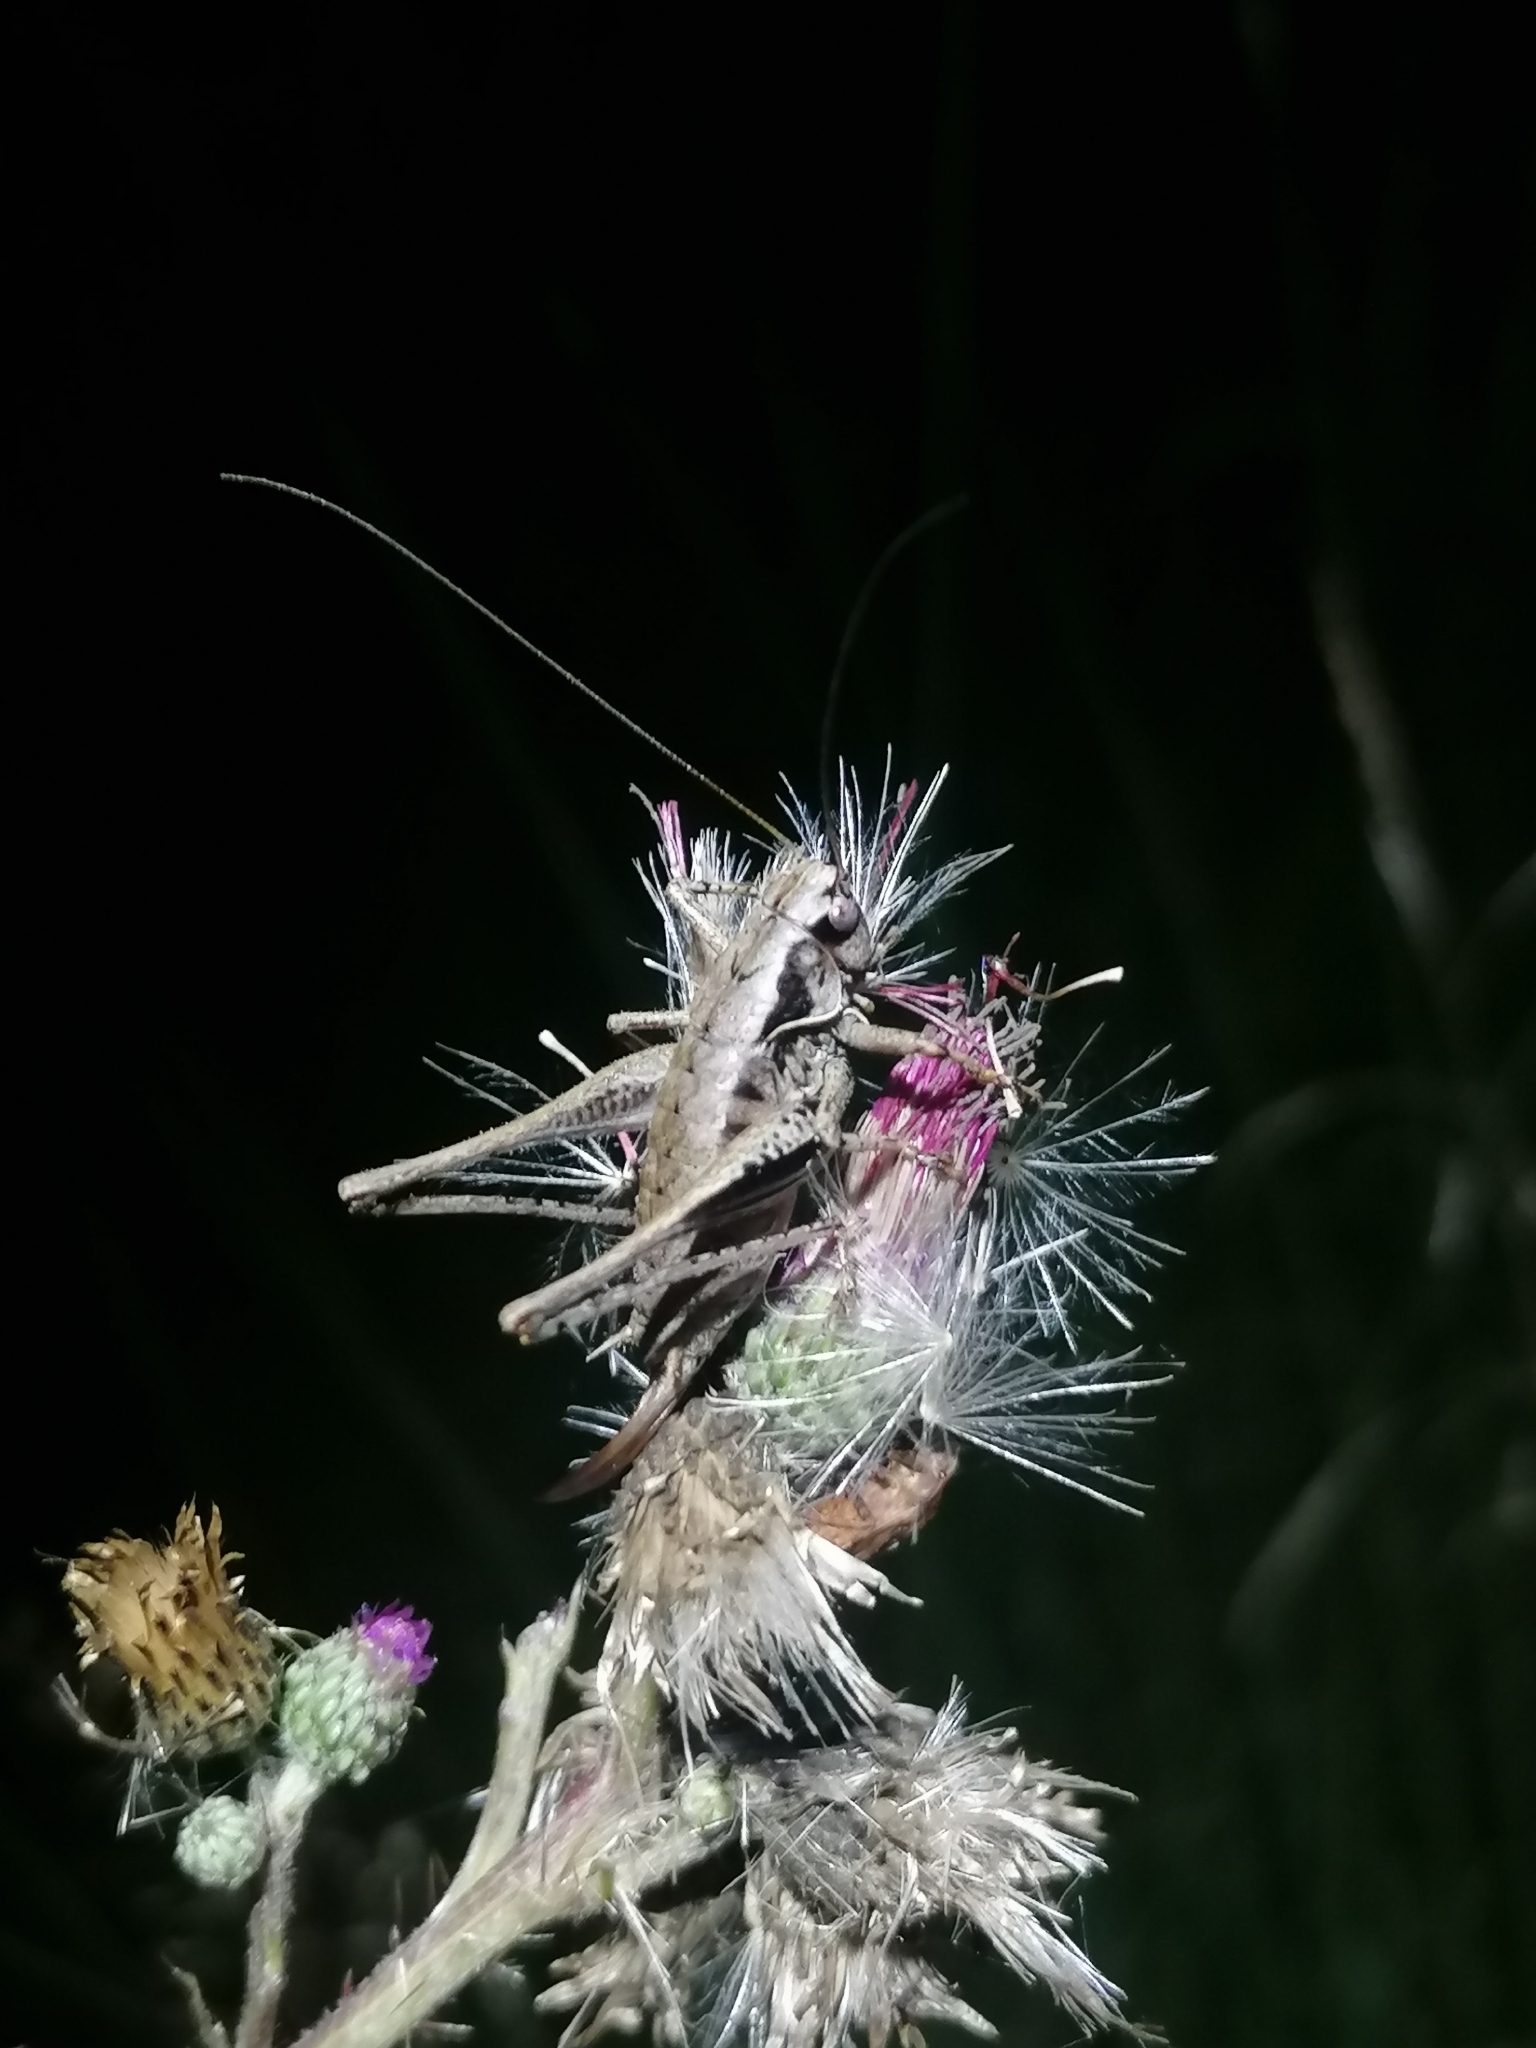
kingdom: Animalia
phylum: Arthropoda
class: Insecta
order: Orthoptera
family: Tettigoniidae
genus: Pholidoptera
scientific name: Pholidoptera griseoaptera
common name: Dark bush-cricket
